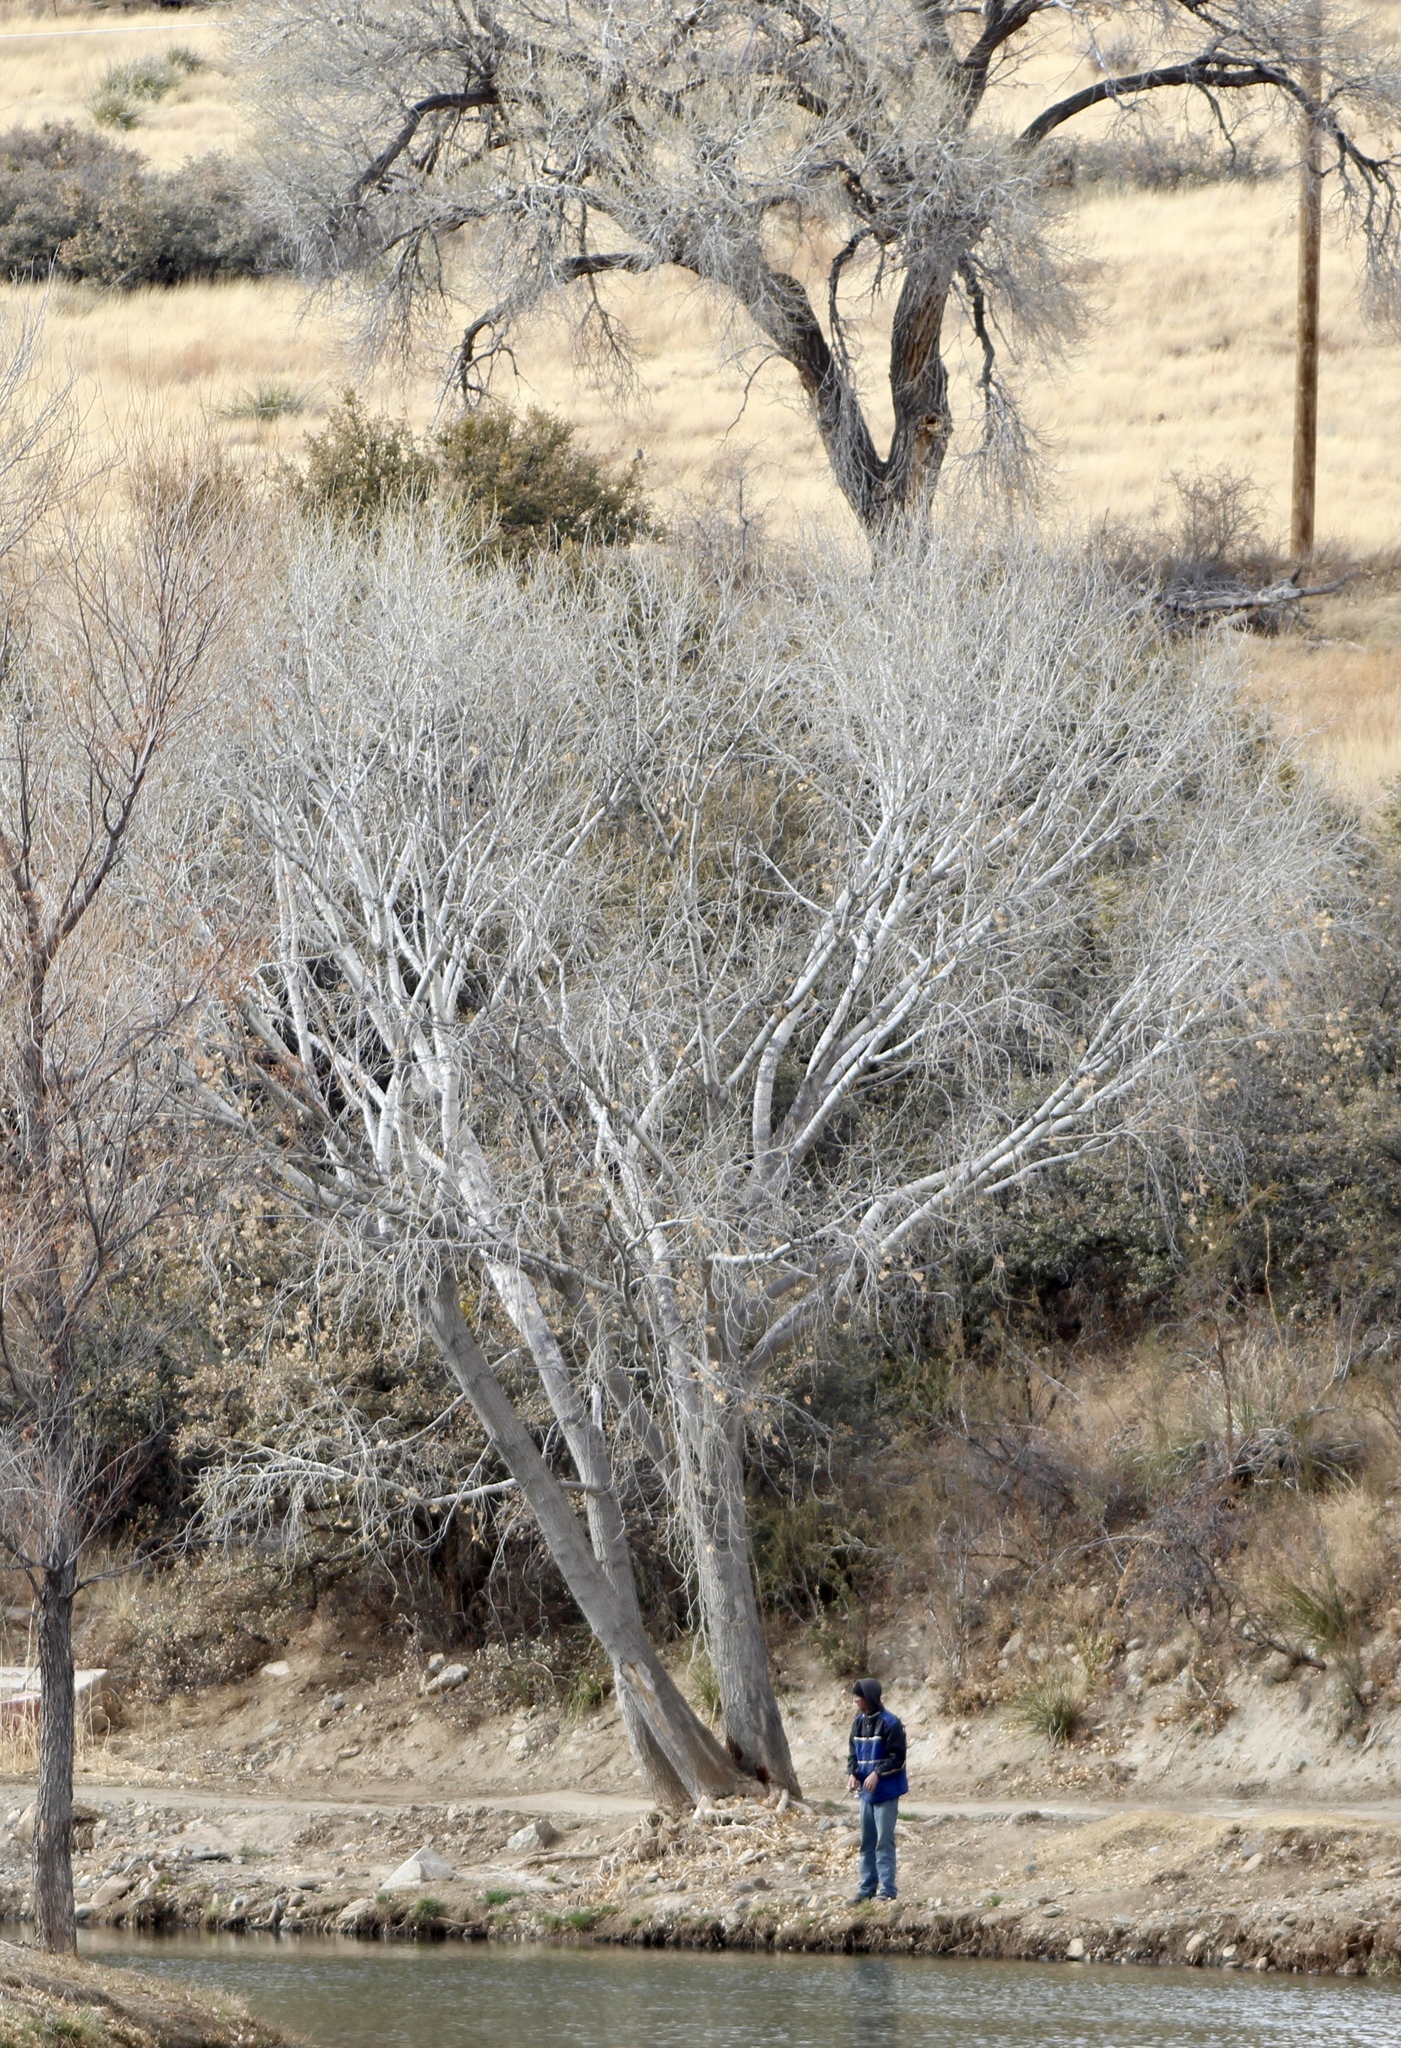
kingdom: Plantae
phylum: Tracheophyta
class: Magnoliopsida
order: Malpighiales
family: Salicaceae
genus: Populus
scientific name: Populus fremontii
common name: Fremont's cottonwood
